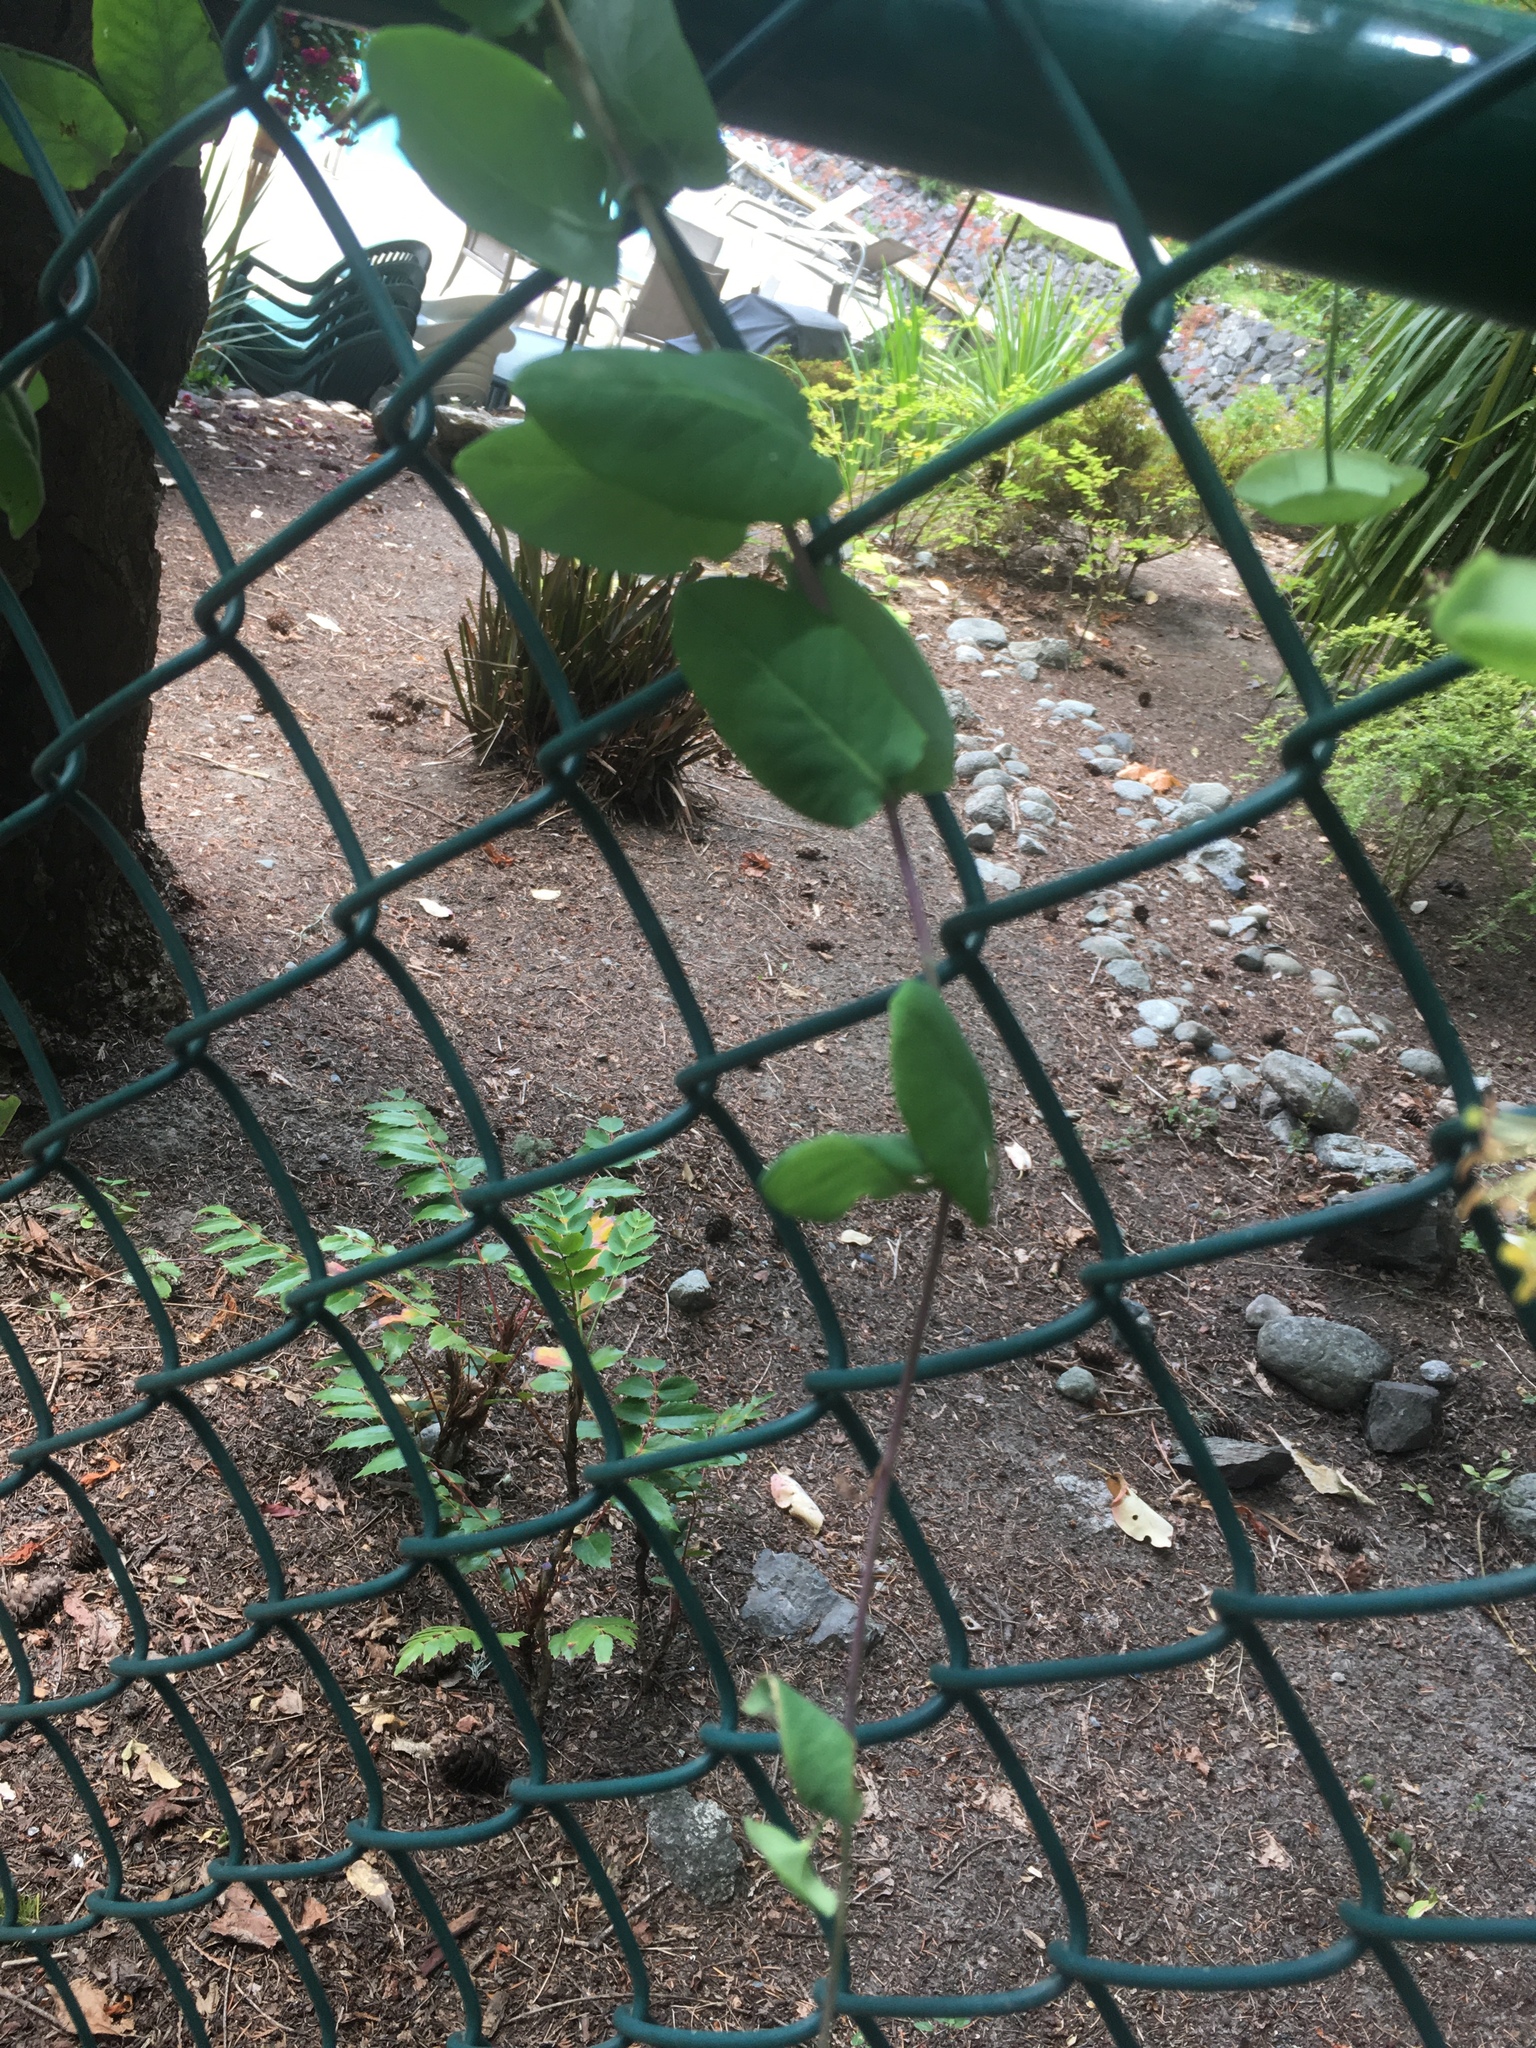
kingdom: Plantae
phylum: Tracheophyta
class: Magnoliopsida
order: Dipsacales
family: Caprifoliaceae
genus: Lonicera
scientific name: Lonicera hispidula
